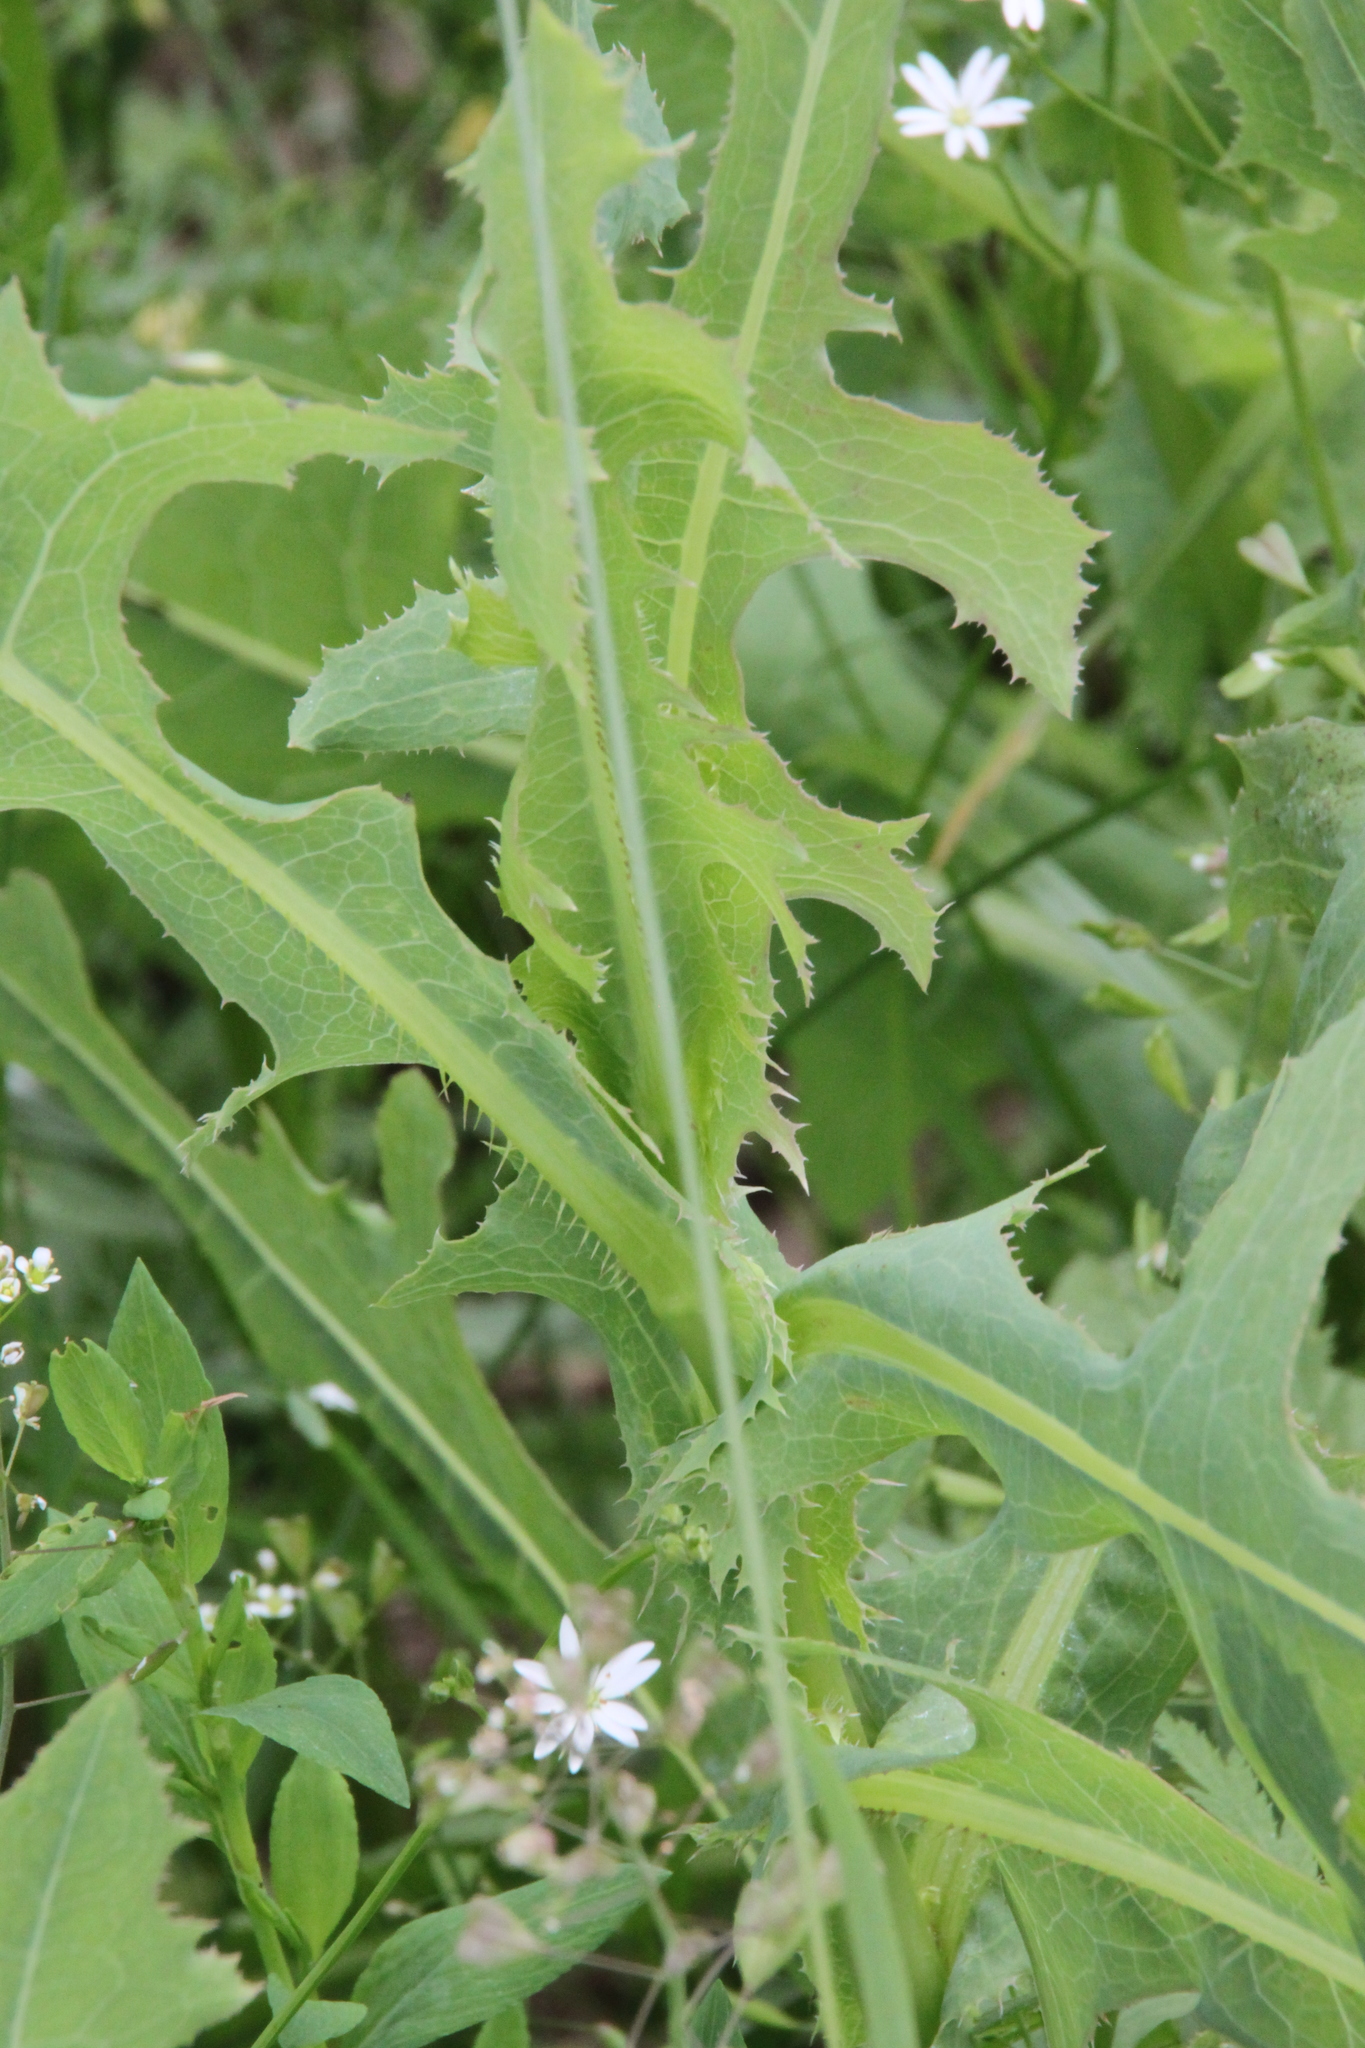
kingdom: Plantae
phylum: Tracheophyta
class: Magnoliopsida
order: Asterales
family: Asteraceae
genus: Lactuca
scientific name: Lactuca serriola
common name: Prickly lettuce
